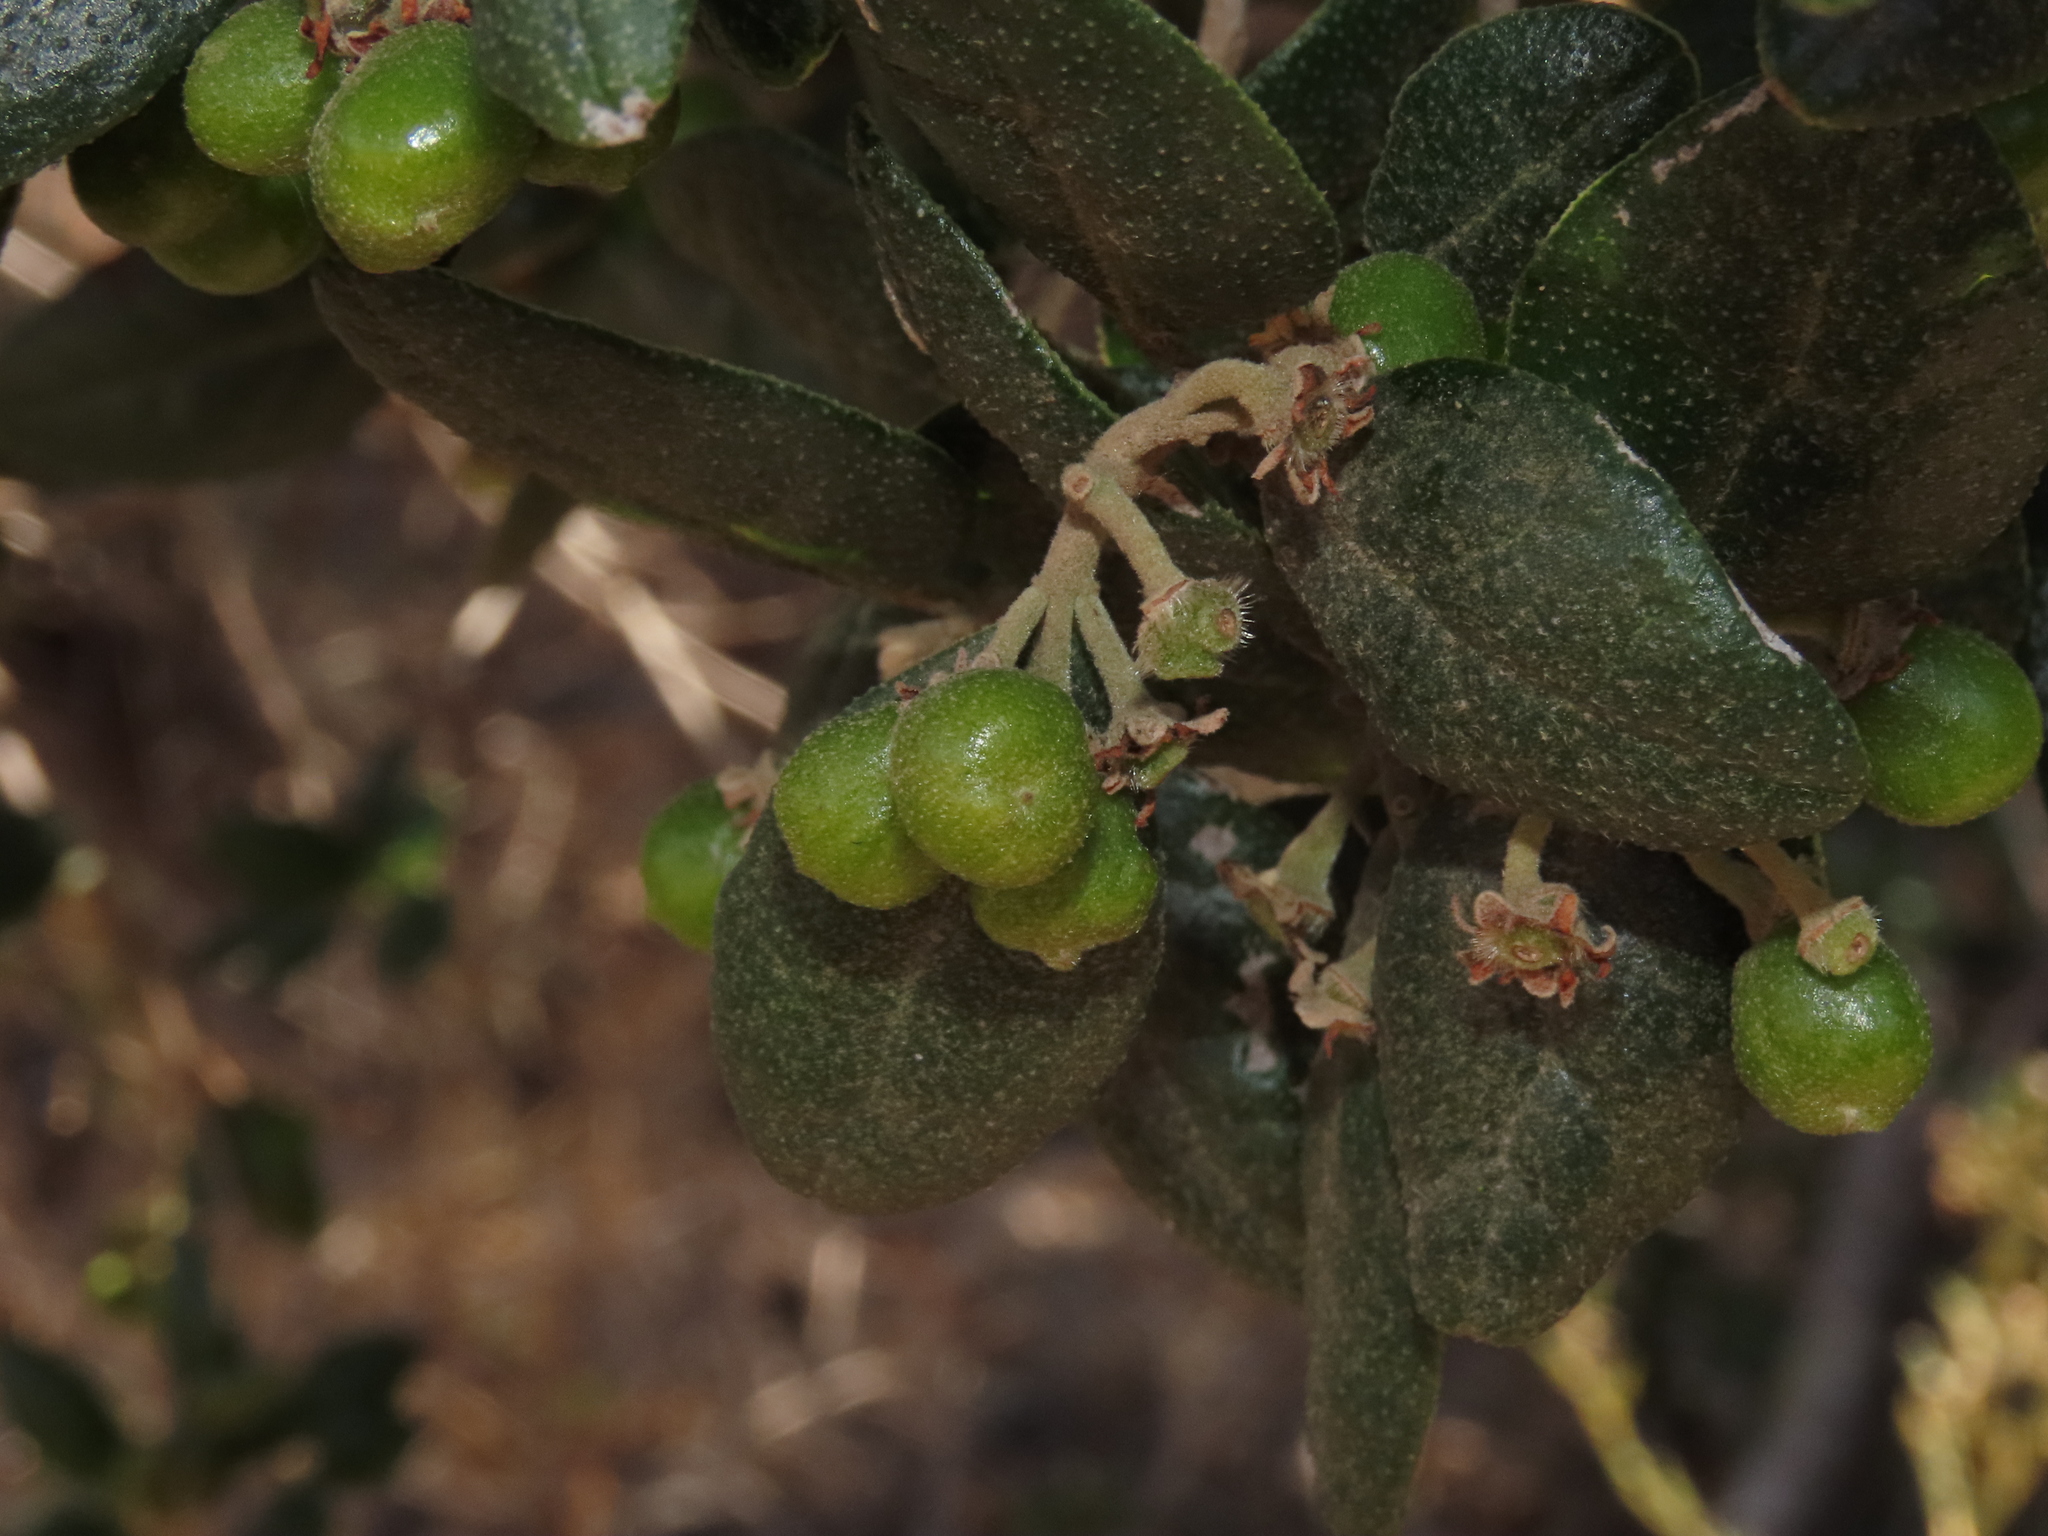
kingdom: Plantae
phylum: Tracheophyta
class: Magnoliopsida
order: Laurales
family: Monimiaceae
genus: Peumus
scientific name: Peumus boldus
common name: Boldo
